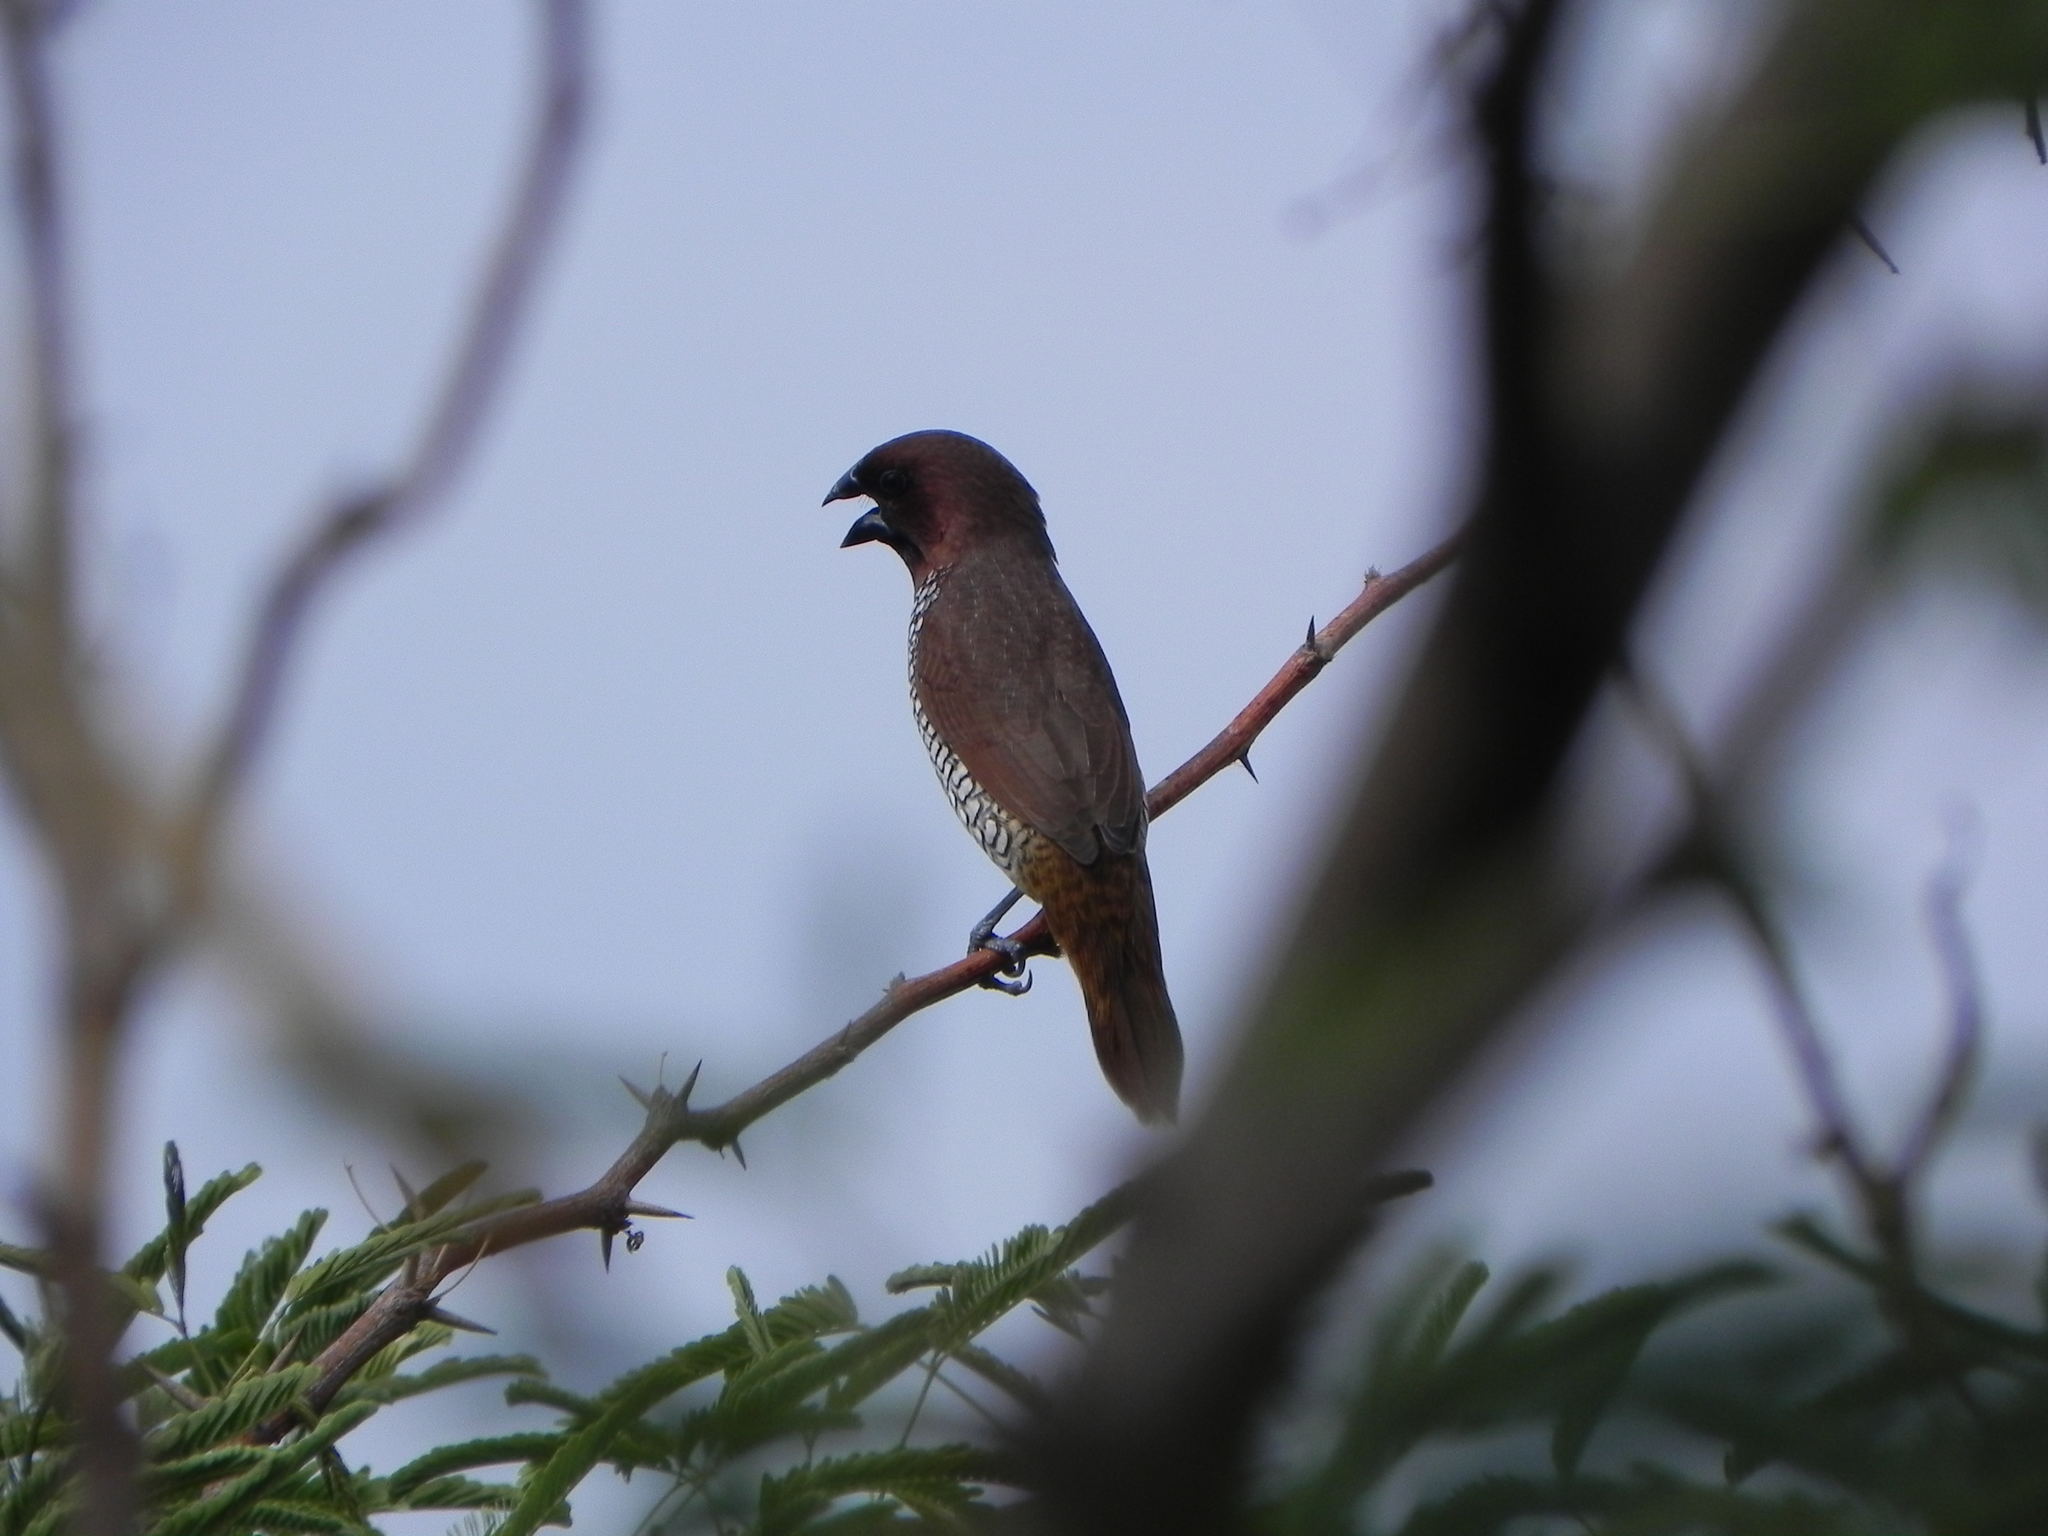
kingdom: Animalia
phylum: Chordata
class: Aves
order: Passeriformes
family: Estrildidae
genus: Lonchura
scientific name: Lonchura punctulata
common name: Scaly-breasted munia
